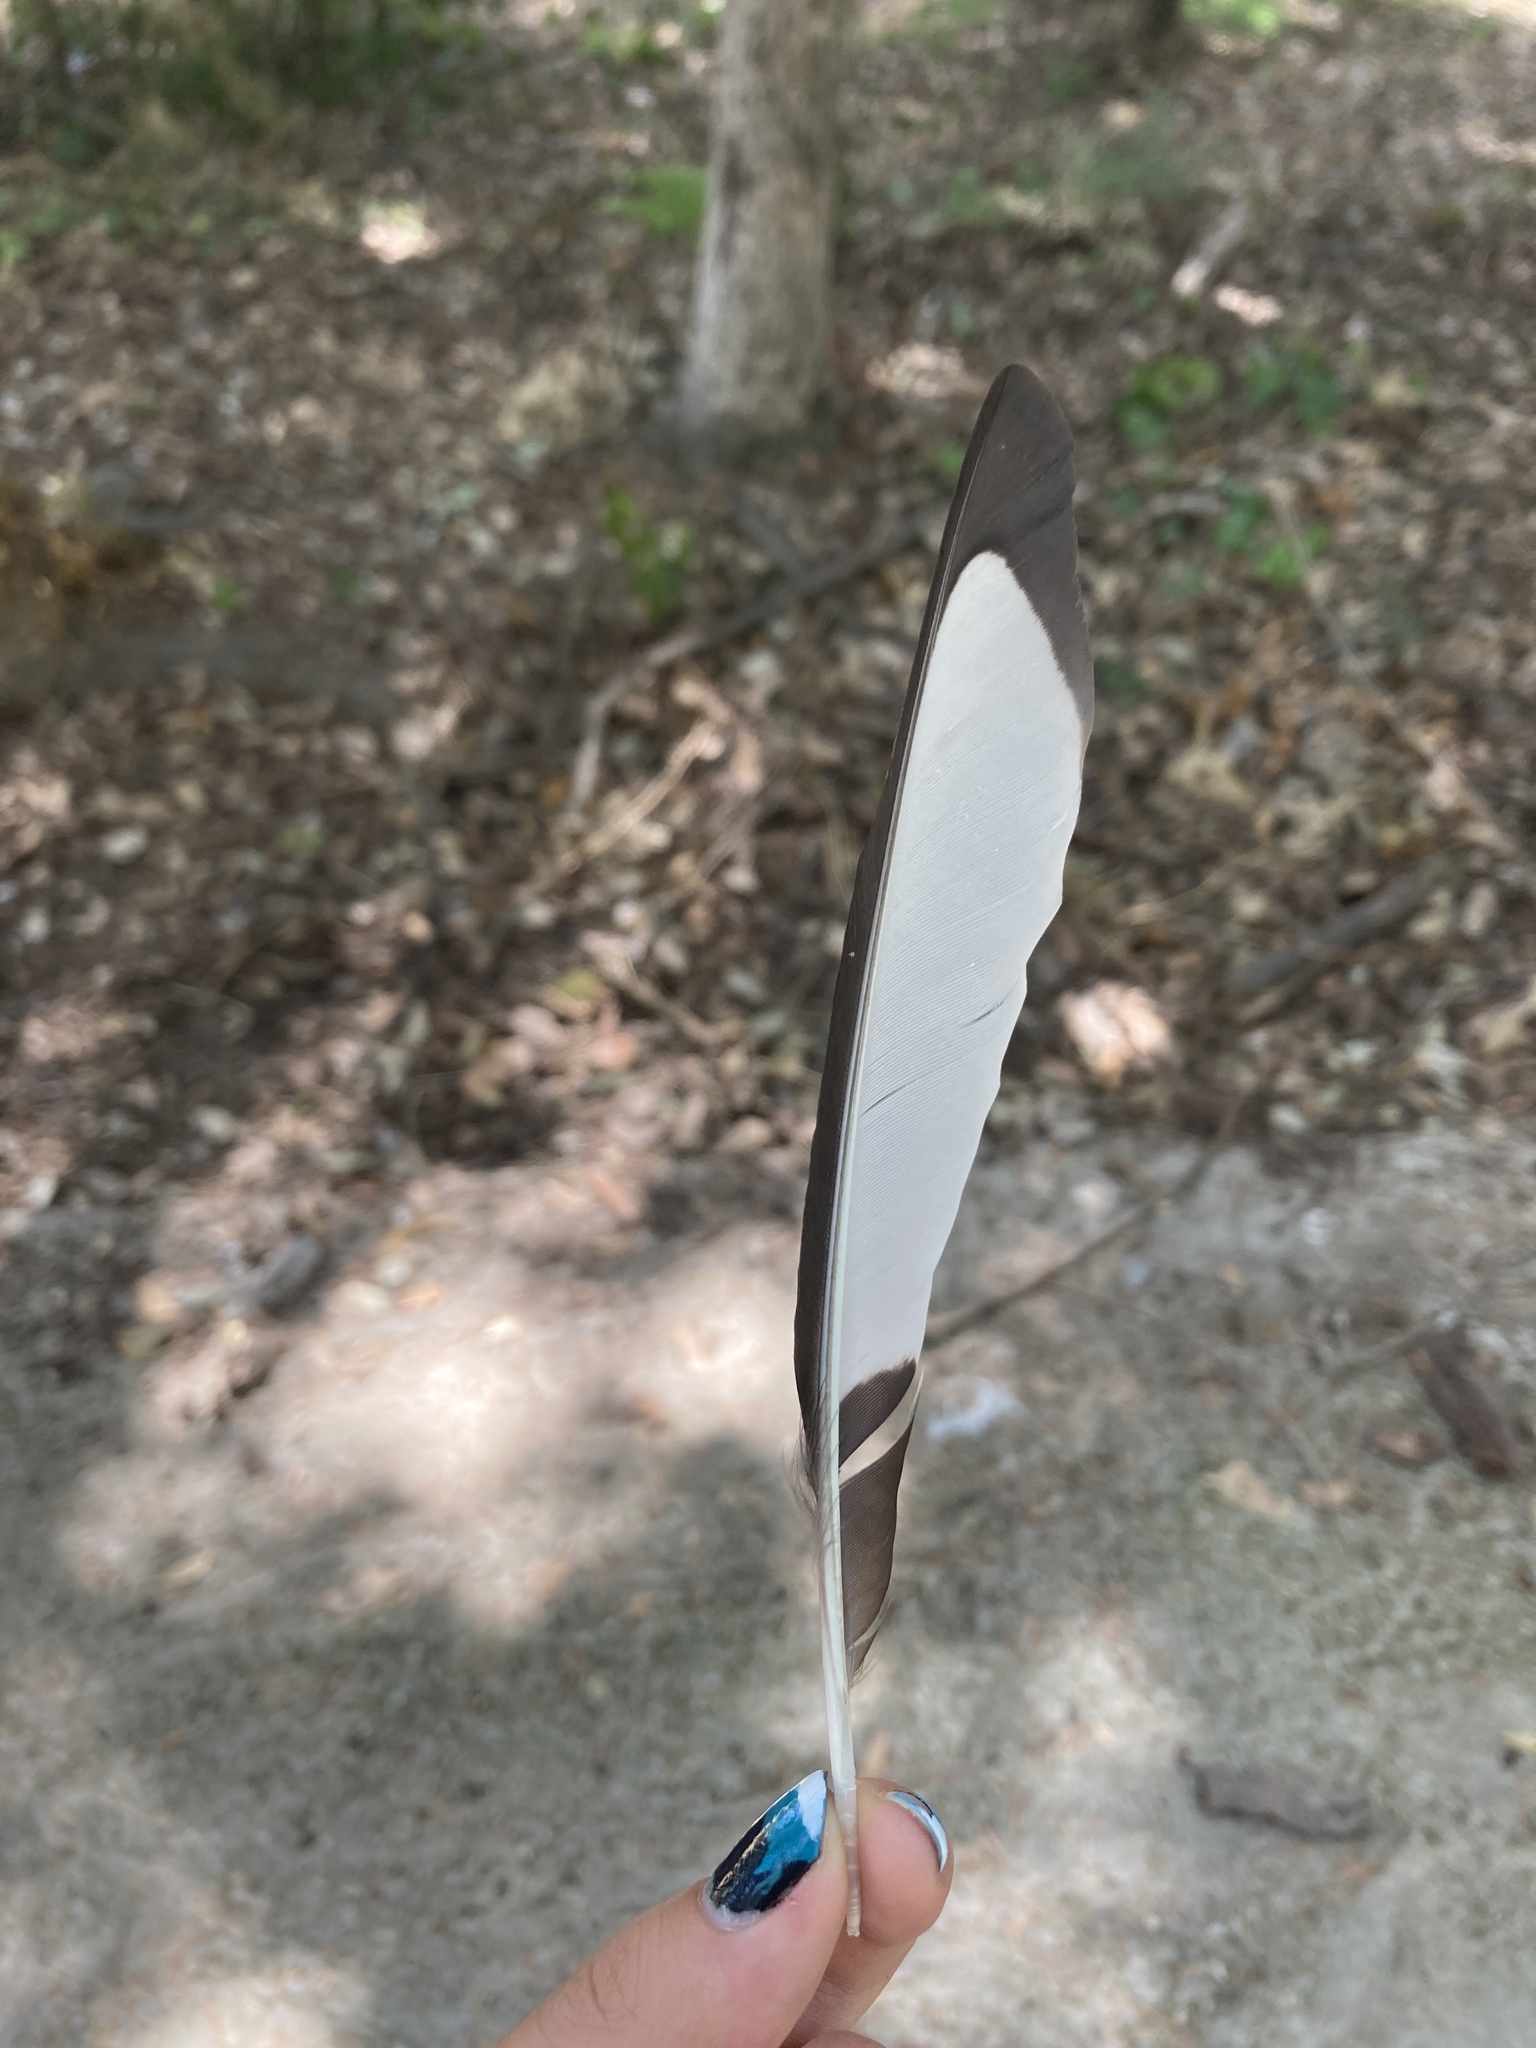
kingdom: Animalia
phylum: Chordata
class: Aves
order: Passeriformes
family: Corvidae
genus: Pica
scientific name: Pica pica
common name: Eurasian magpie
